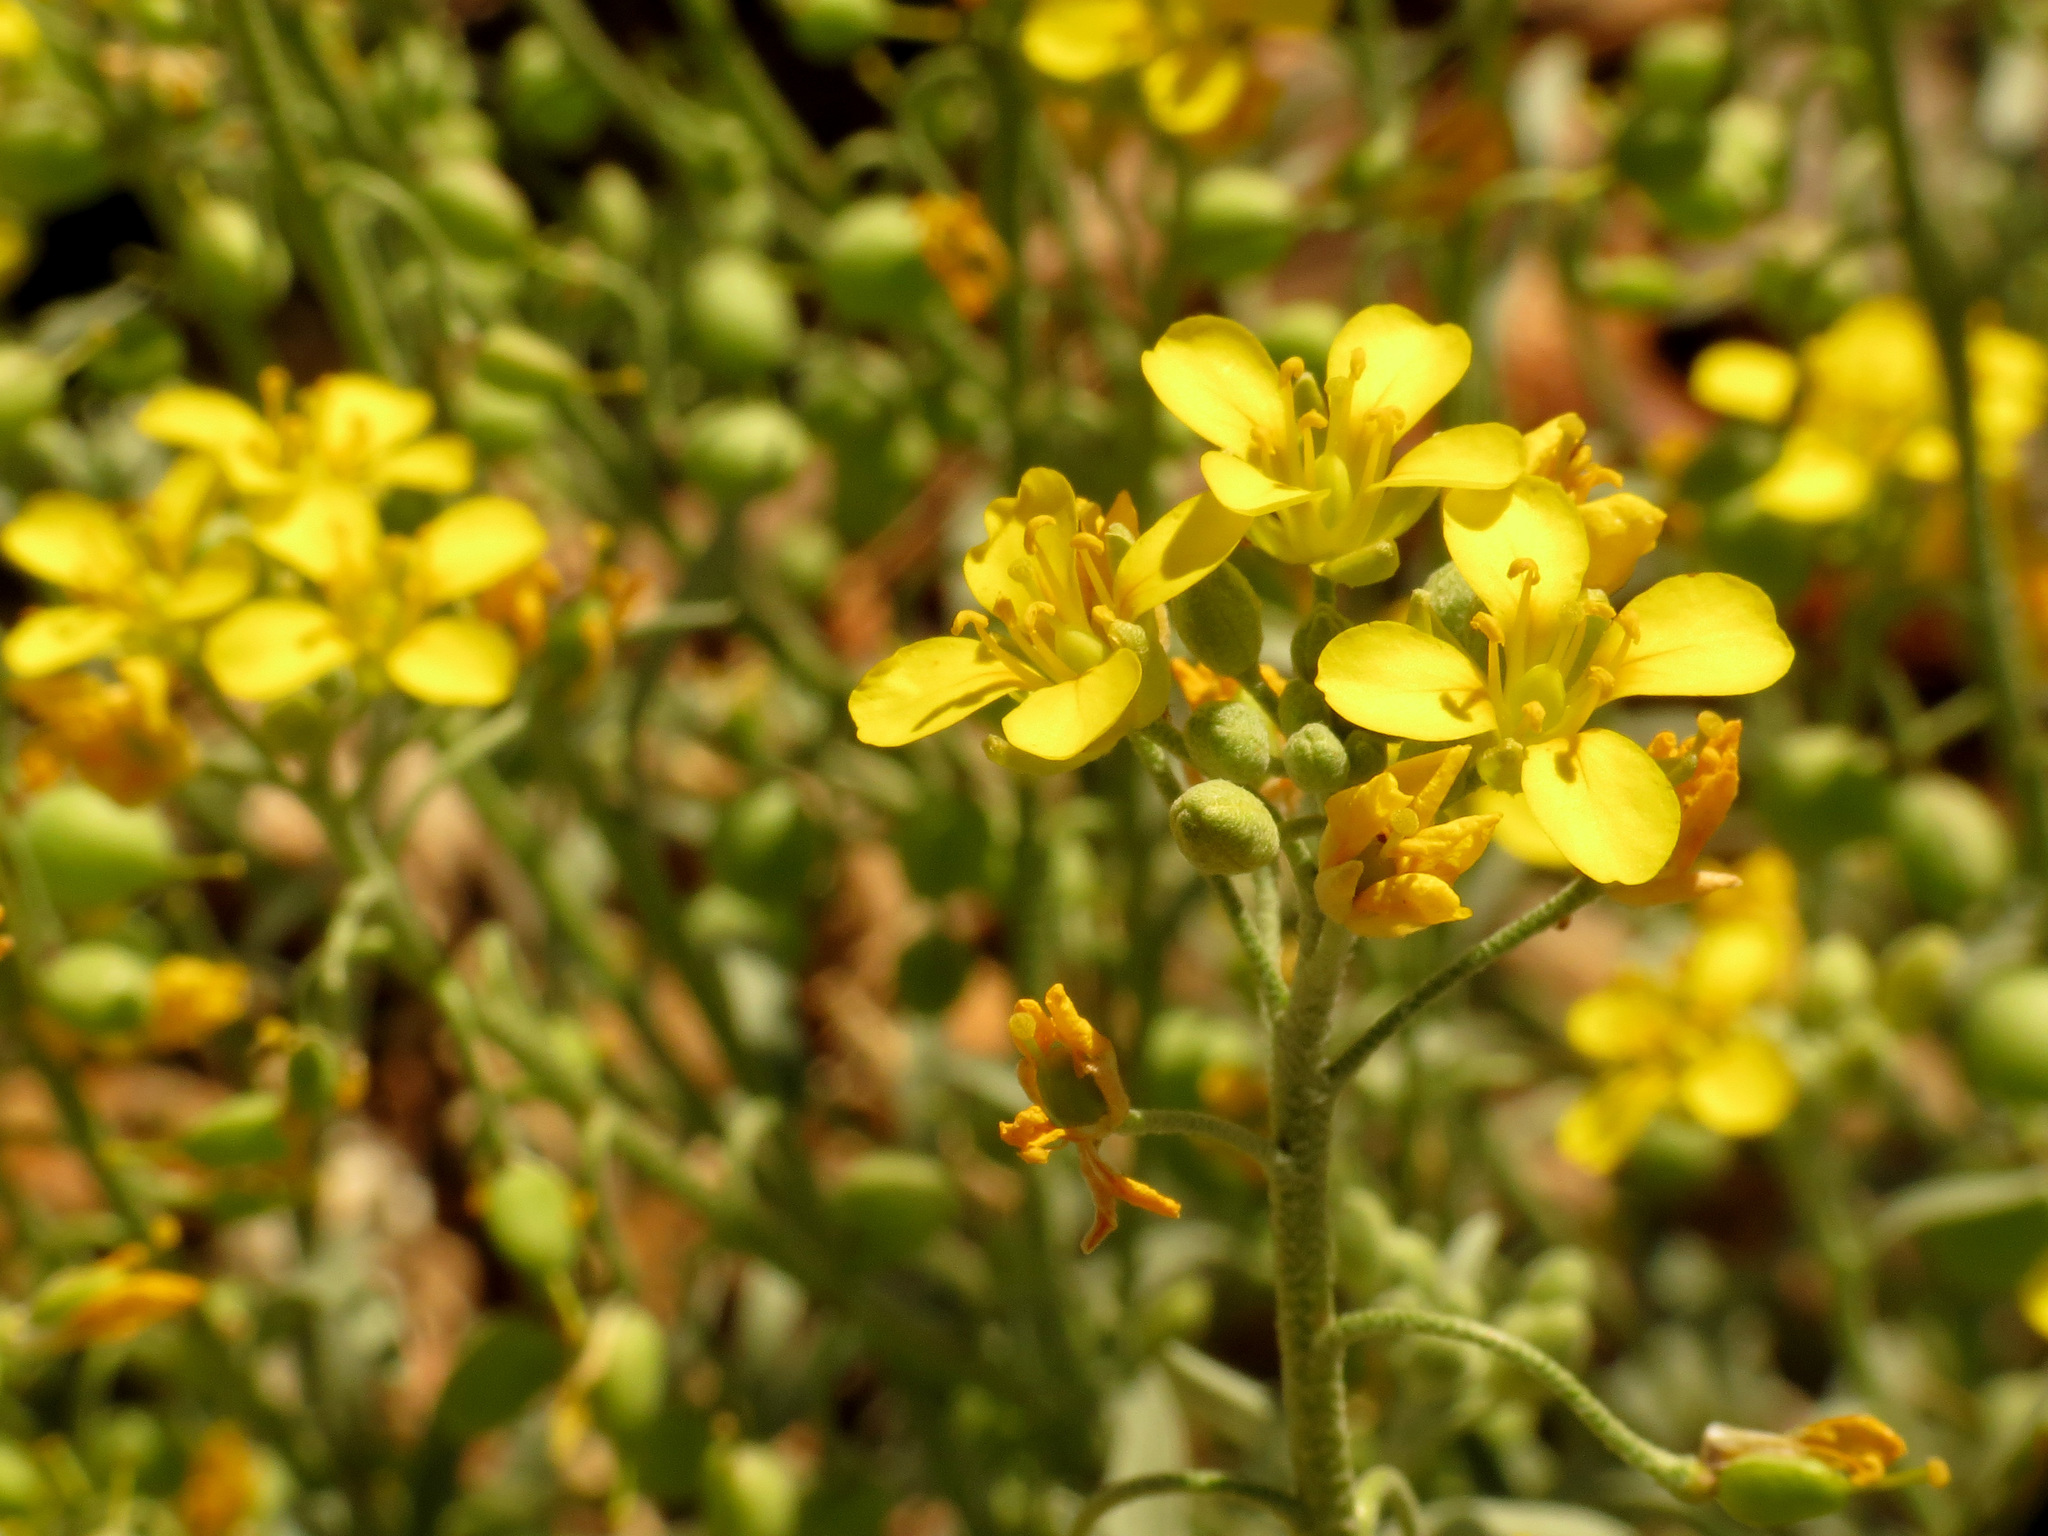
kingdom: Plantae
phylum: Tracheophyta
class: Magnoliopsida
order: Brassicales
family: Brassicaceae
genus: Physaria
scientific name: Physaria gordonii
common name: Gordon's bladderpod
